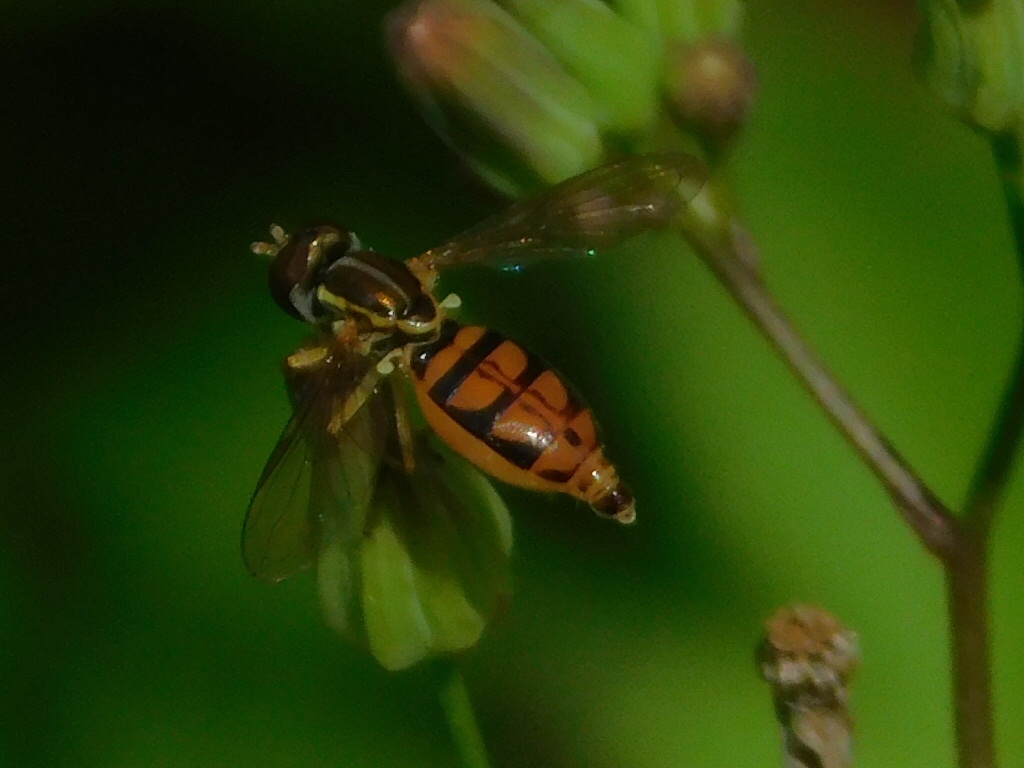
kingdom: Animalia
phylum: Arthropoda
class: Insecta
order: Diptera
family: Syrphidae
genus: Toxomerus
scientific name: Toxomerus floralis
